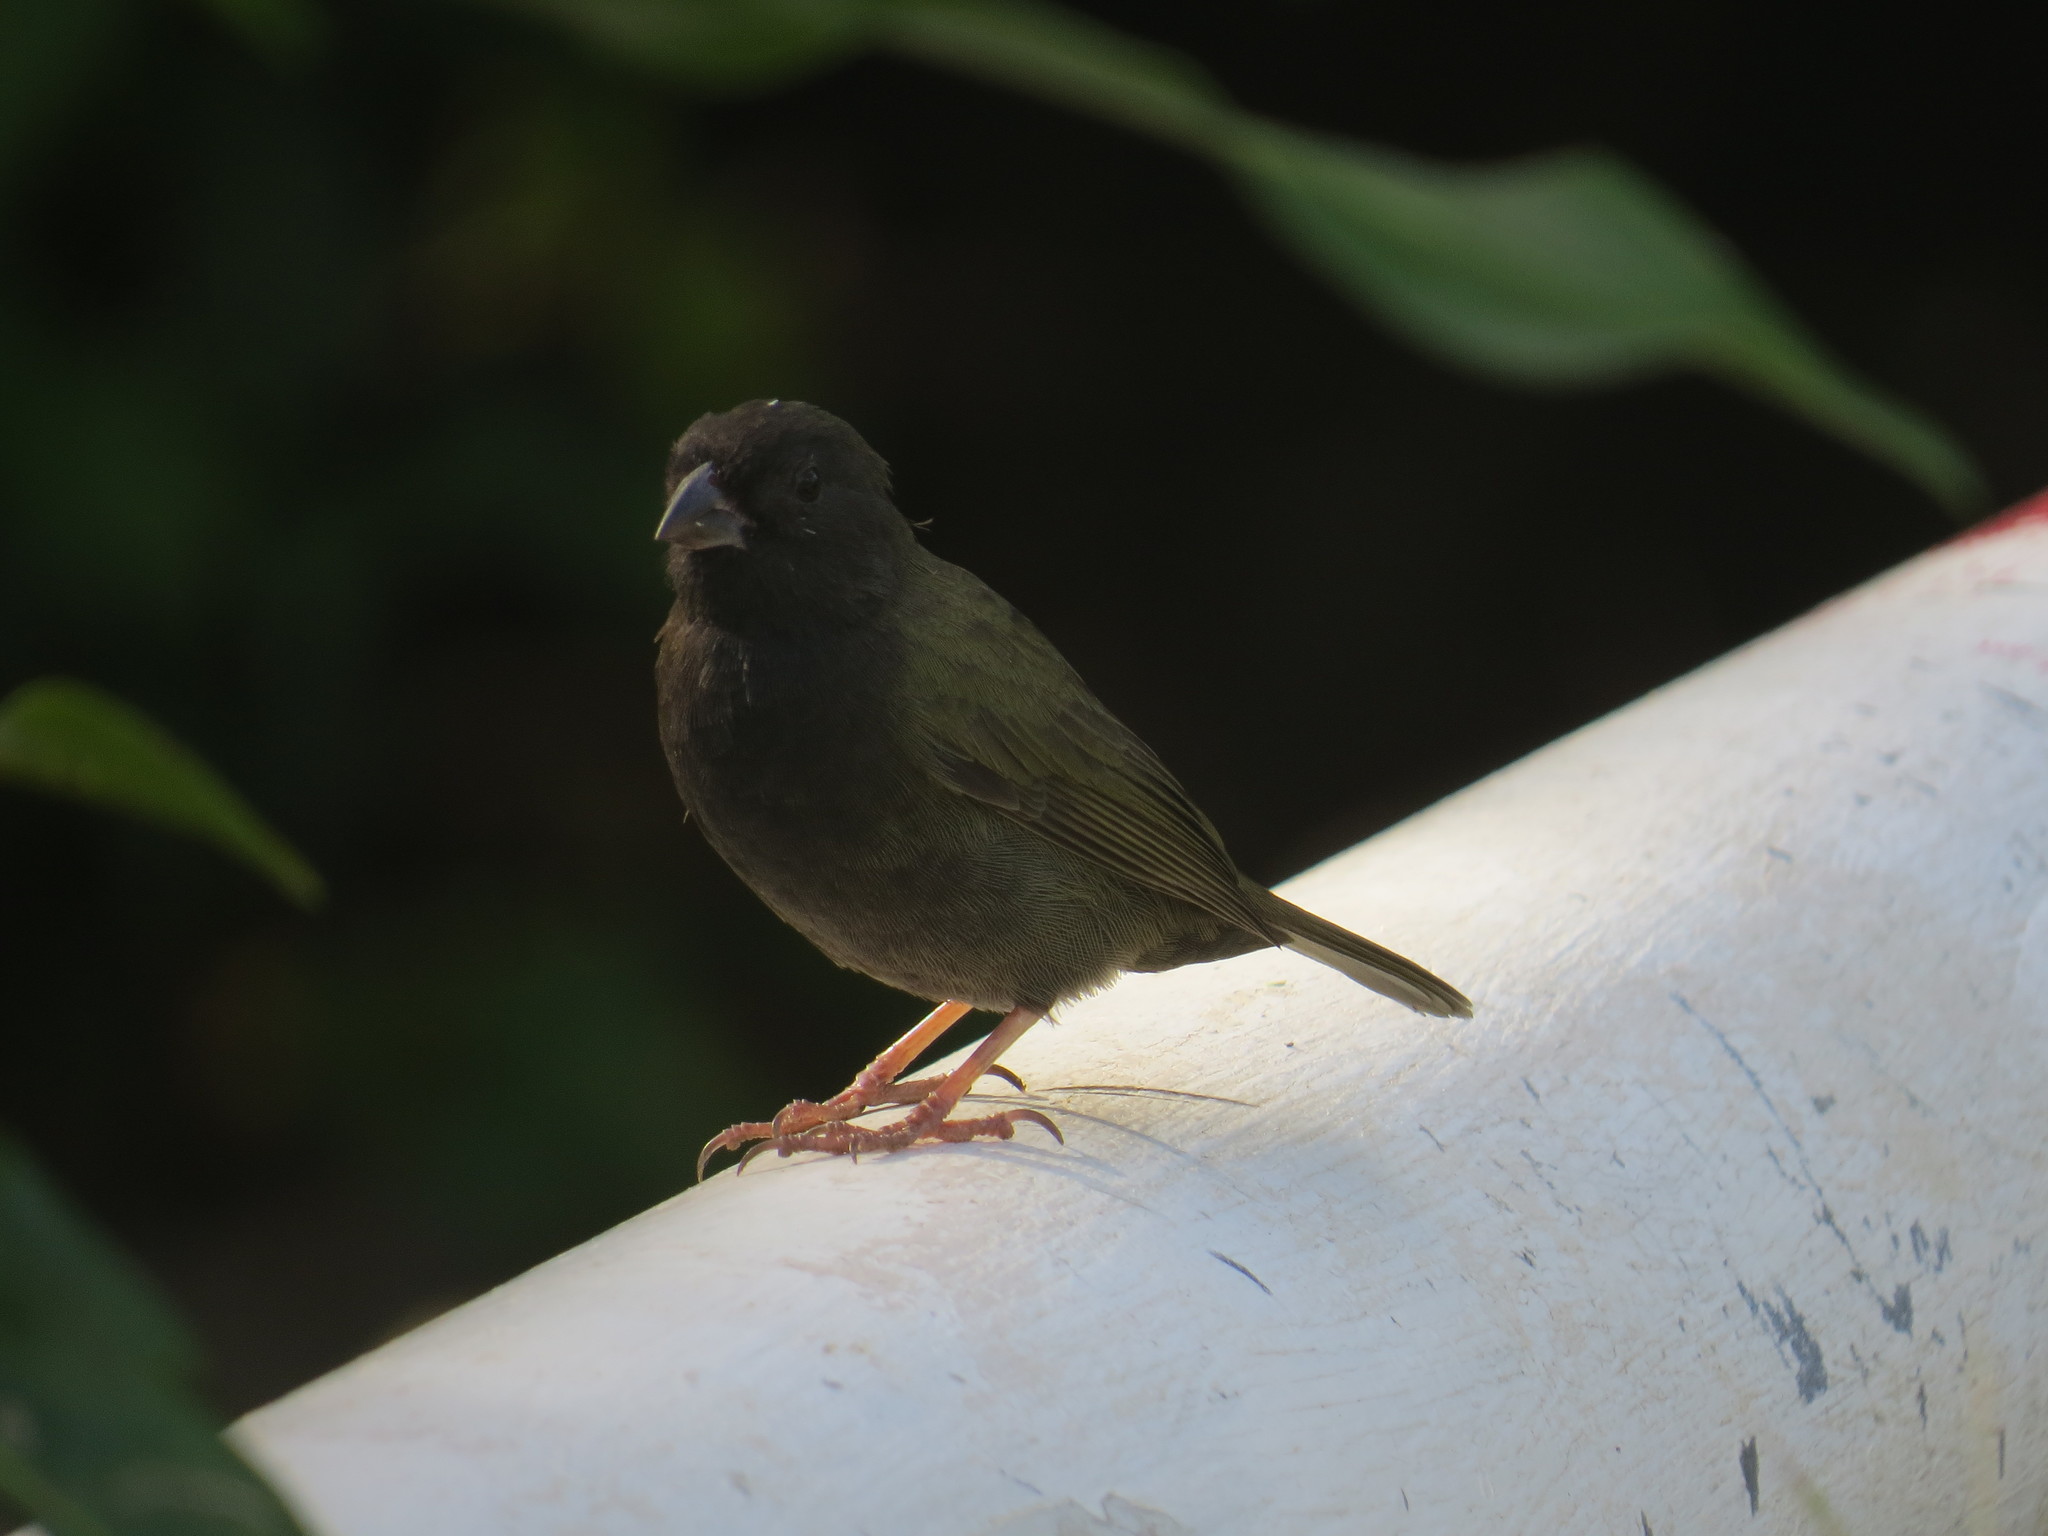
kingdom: Animalia
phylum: Chordata
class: Aves
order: Passeriformes
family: Thraupidae
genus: Melanospiza
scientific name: Melanospiza bicolor
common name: Black-faced grassquit
